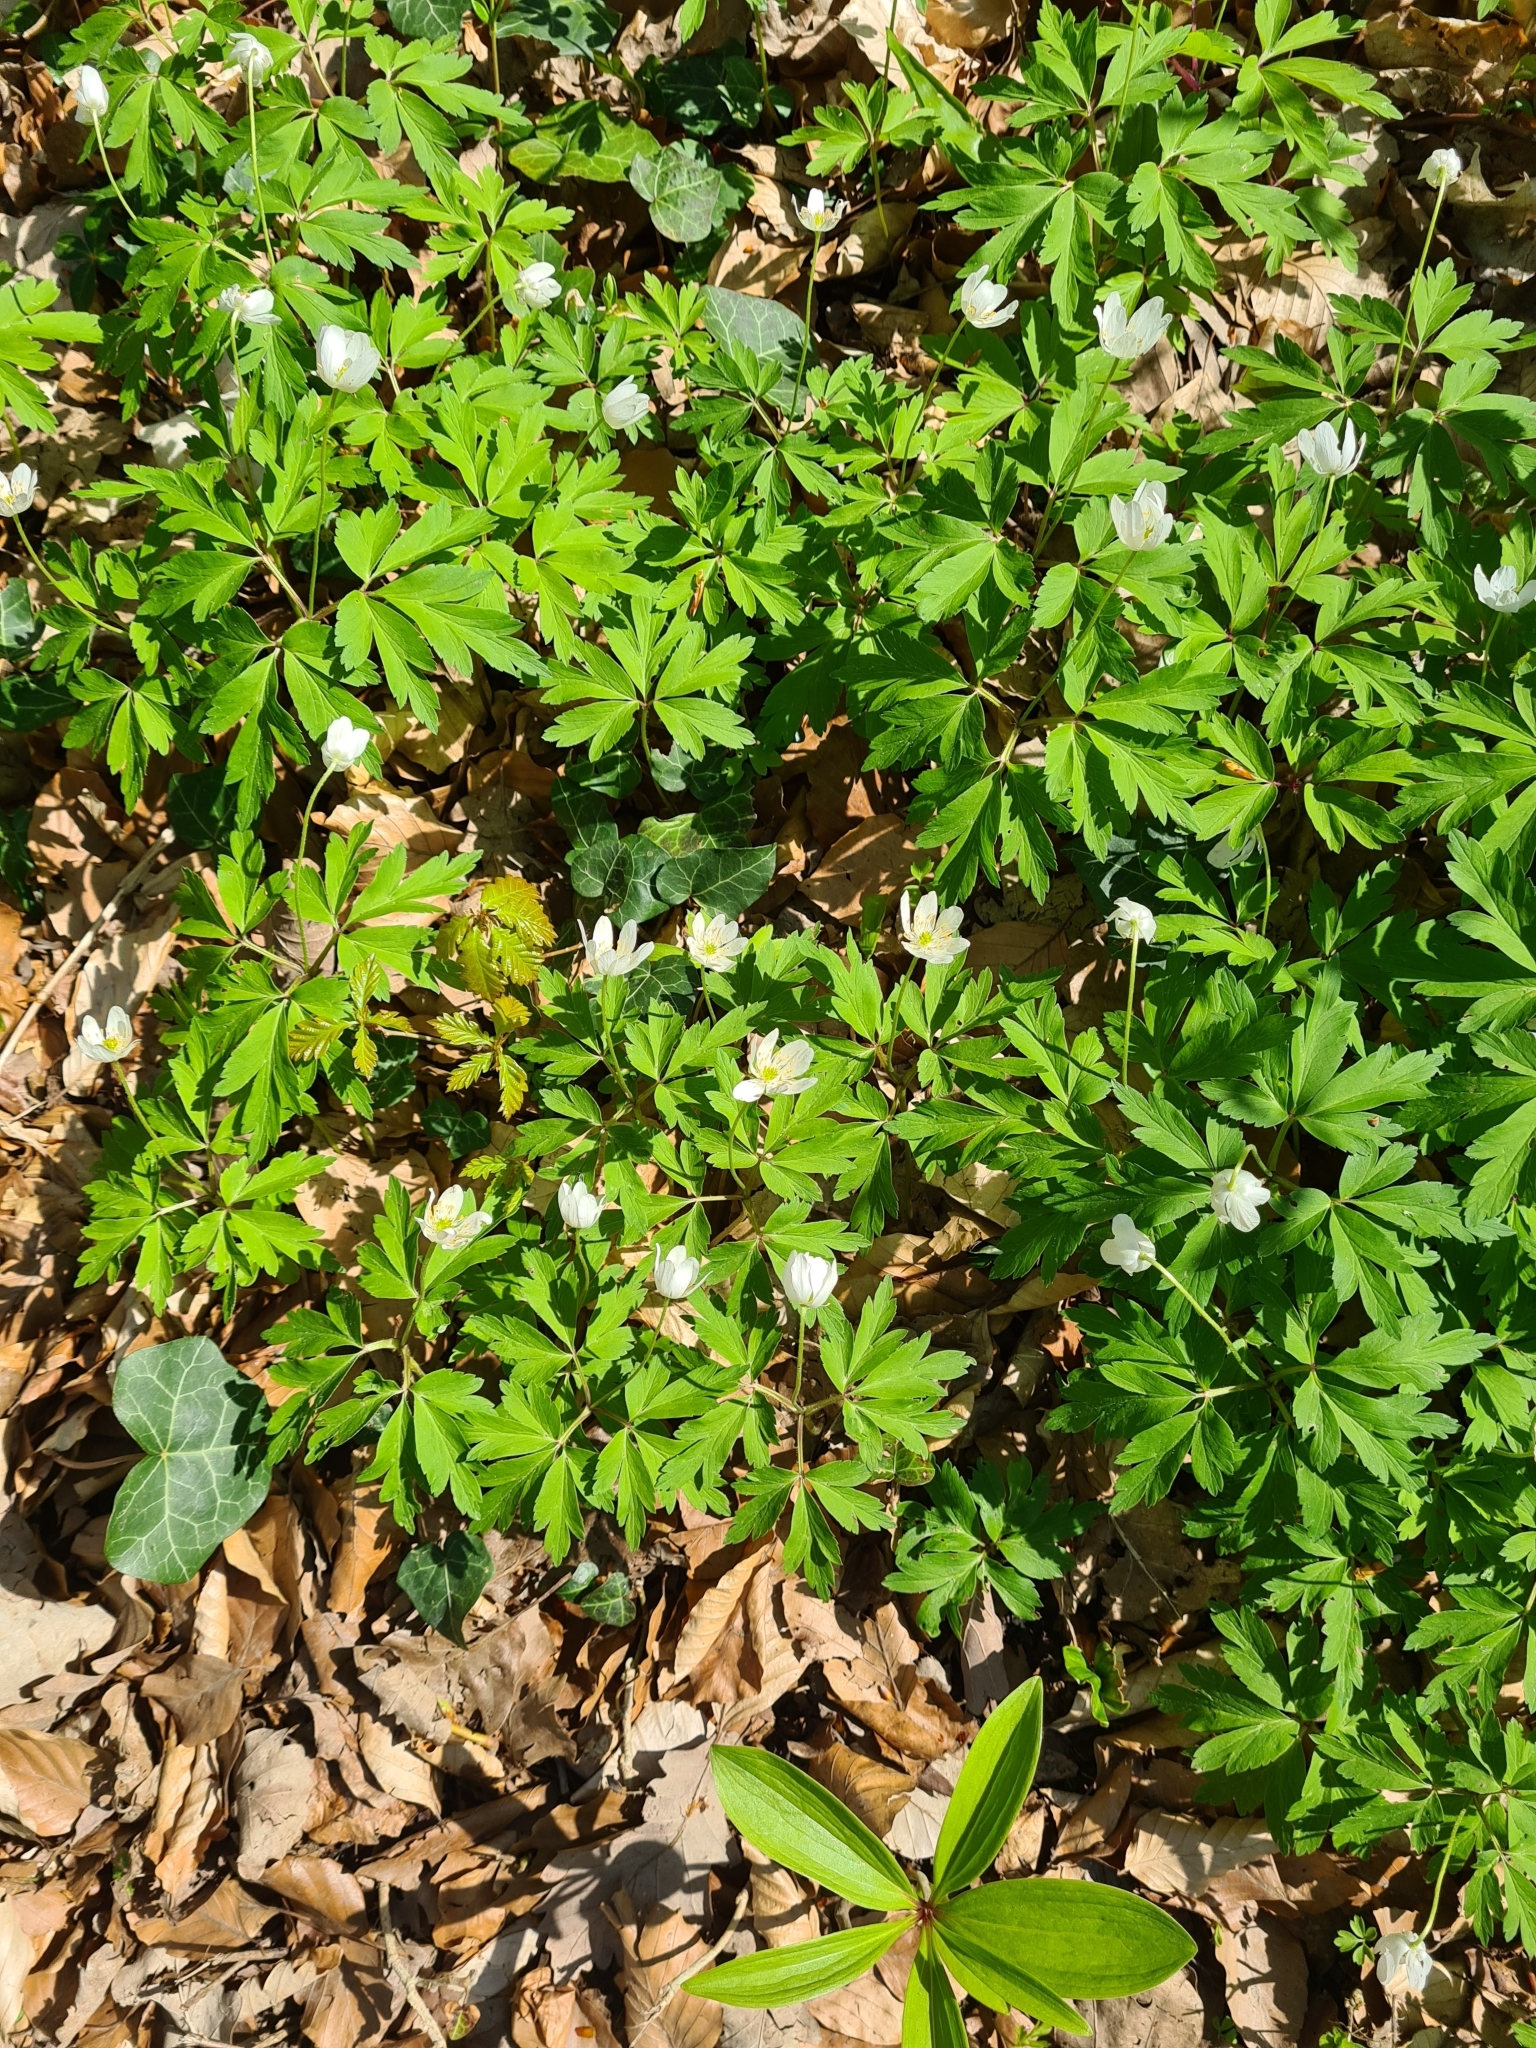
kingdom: Plantae
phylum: Tracheophyta
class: Magnoliopsida
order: Ranunculales
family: Ranunculaceae
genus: Anemone
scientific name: Anemone nemorosa
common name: Wood anemone
